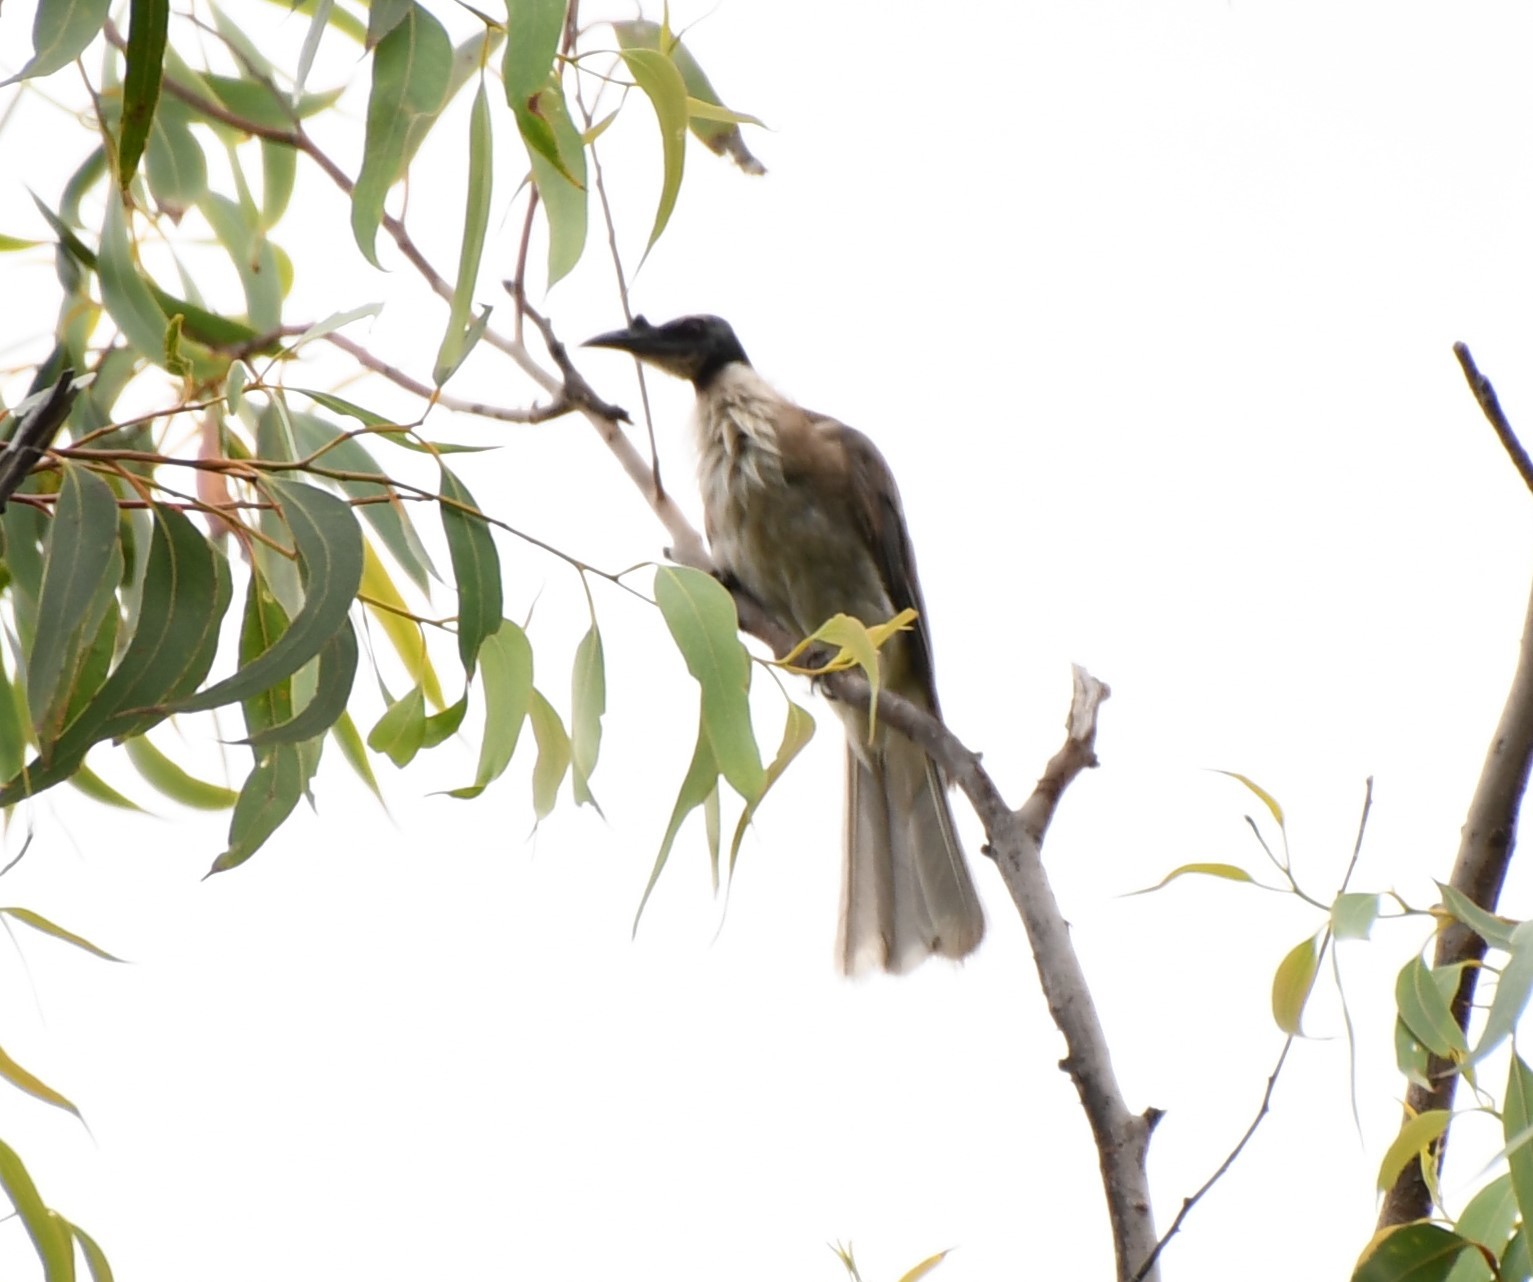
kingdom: Animalia
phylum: Chordata
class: Aves
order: Passeriformes
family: Meliphagidae
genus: Philemon
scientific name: Philemon corniculatus
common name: Noisy friarbird
